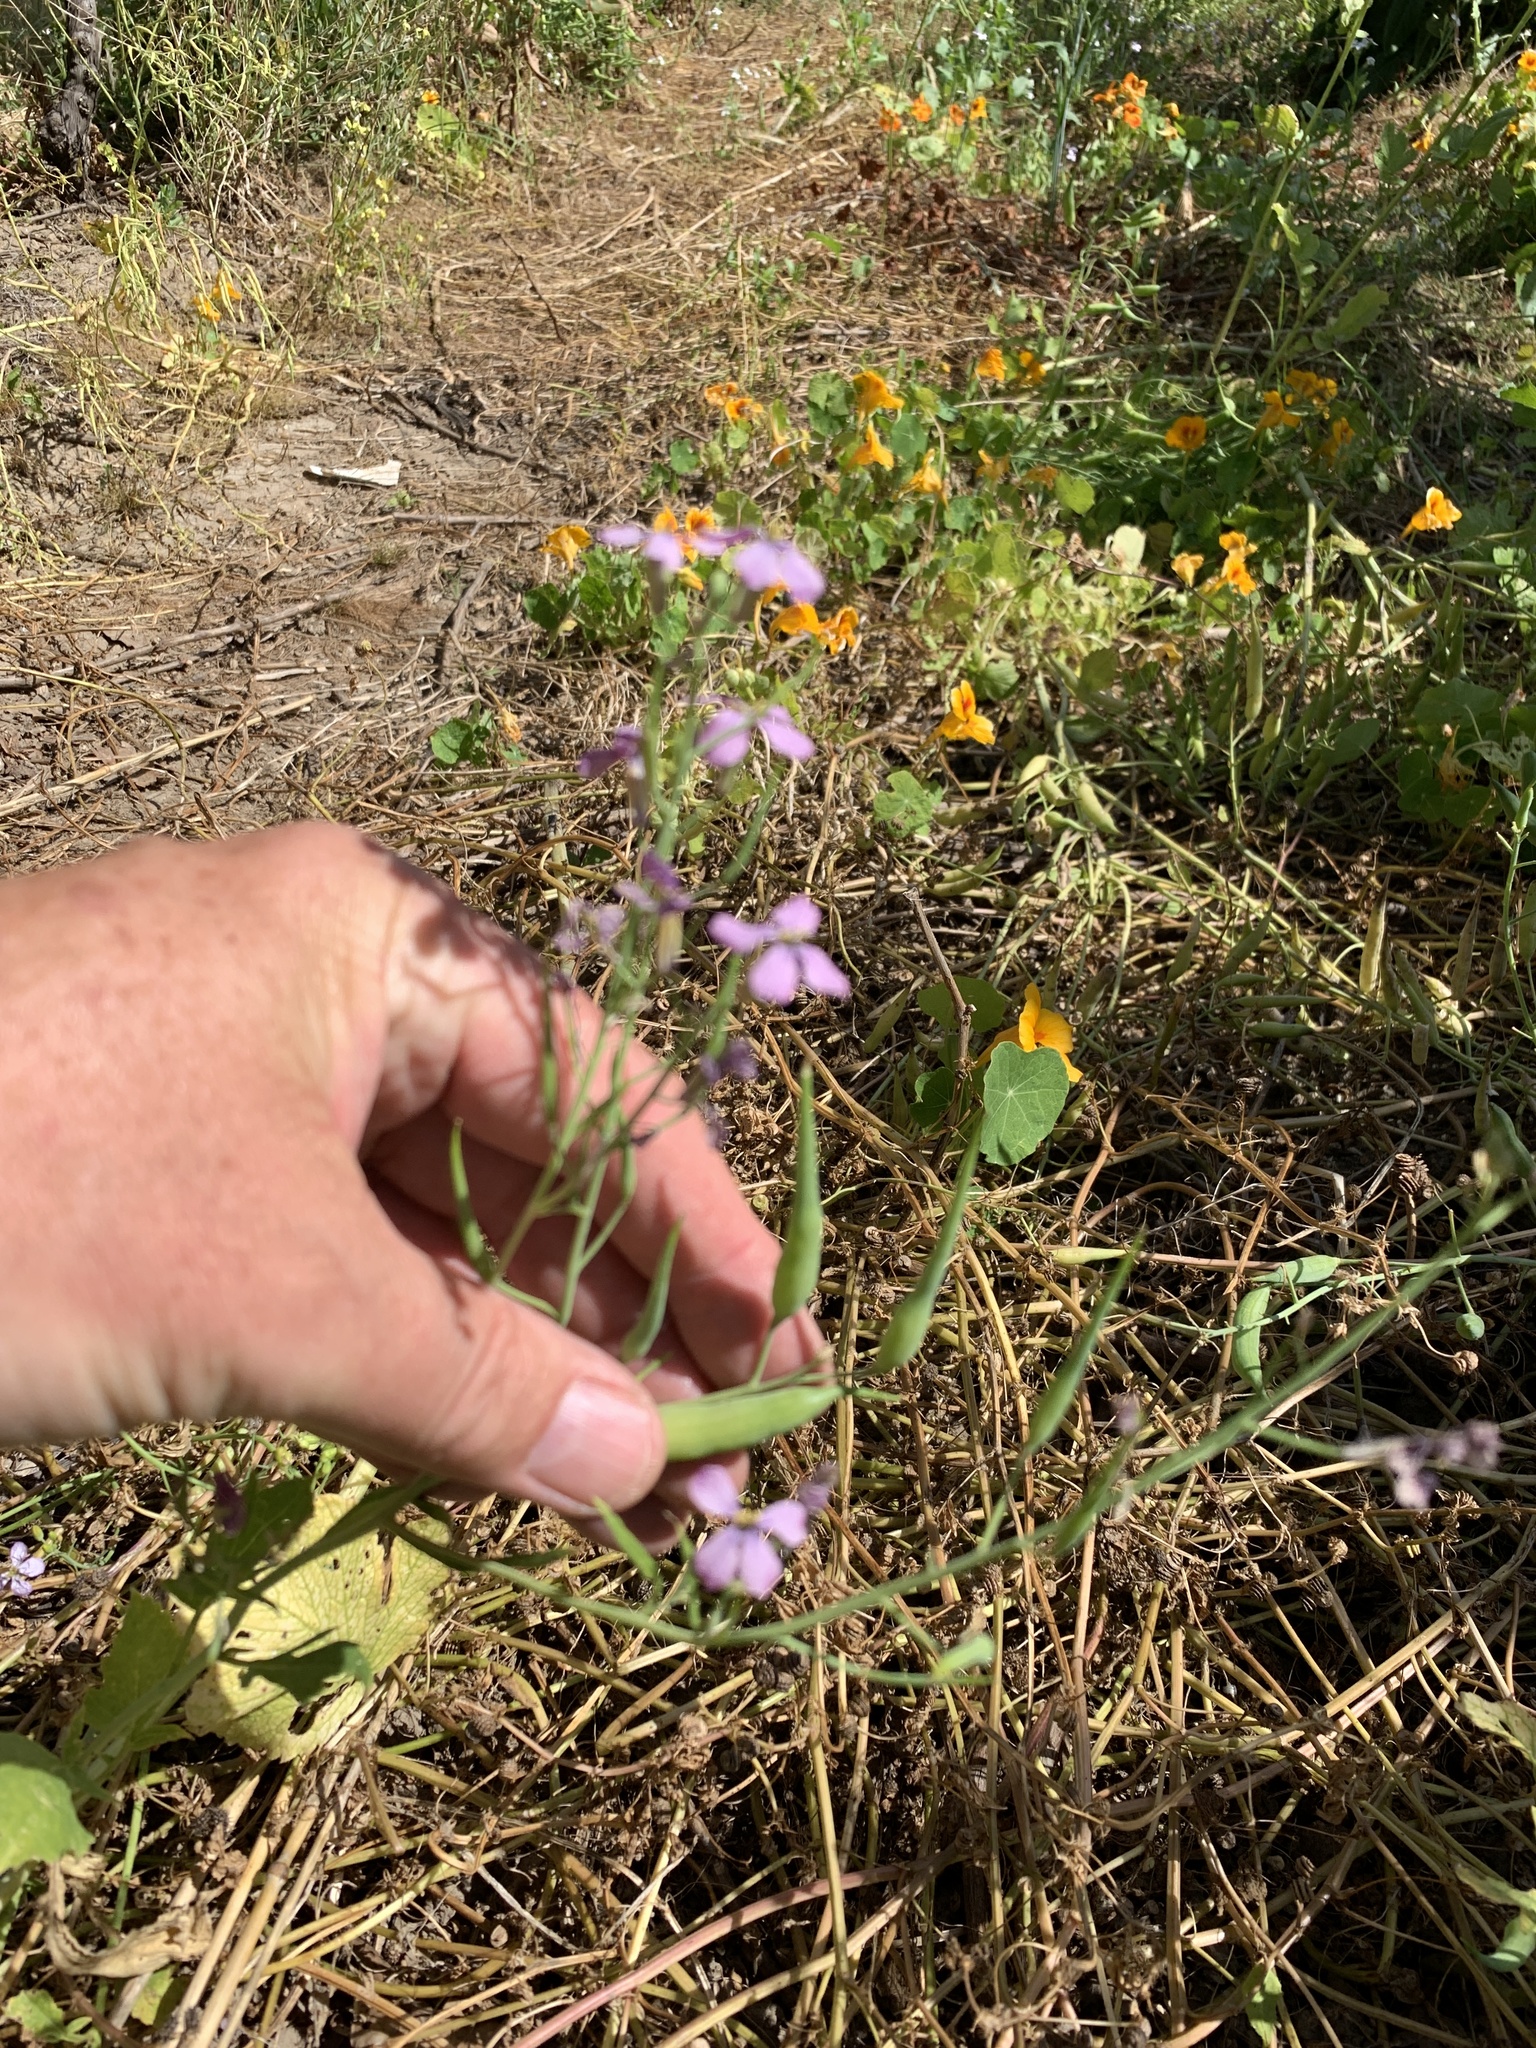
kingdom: Plantae
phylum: Tracheophyta
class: Magnoliopsida
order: Brassicales
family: Brassicaceae
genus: Raphanus
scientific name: Raphanus sativus
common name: Cultivated radish
